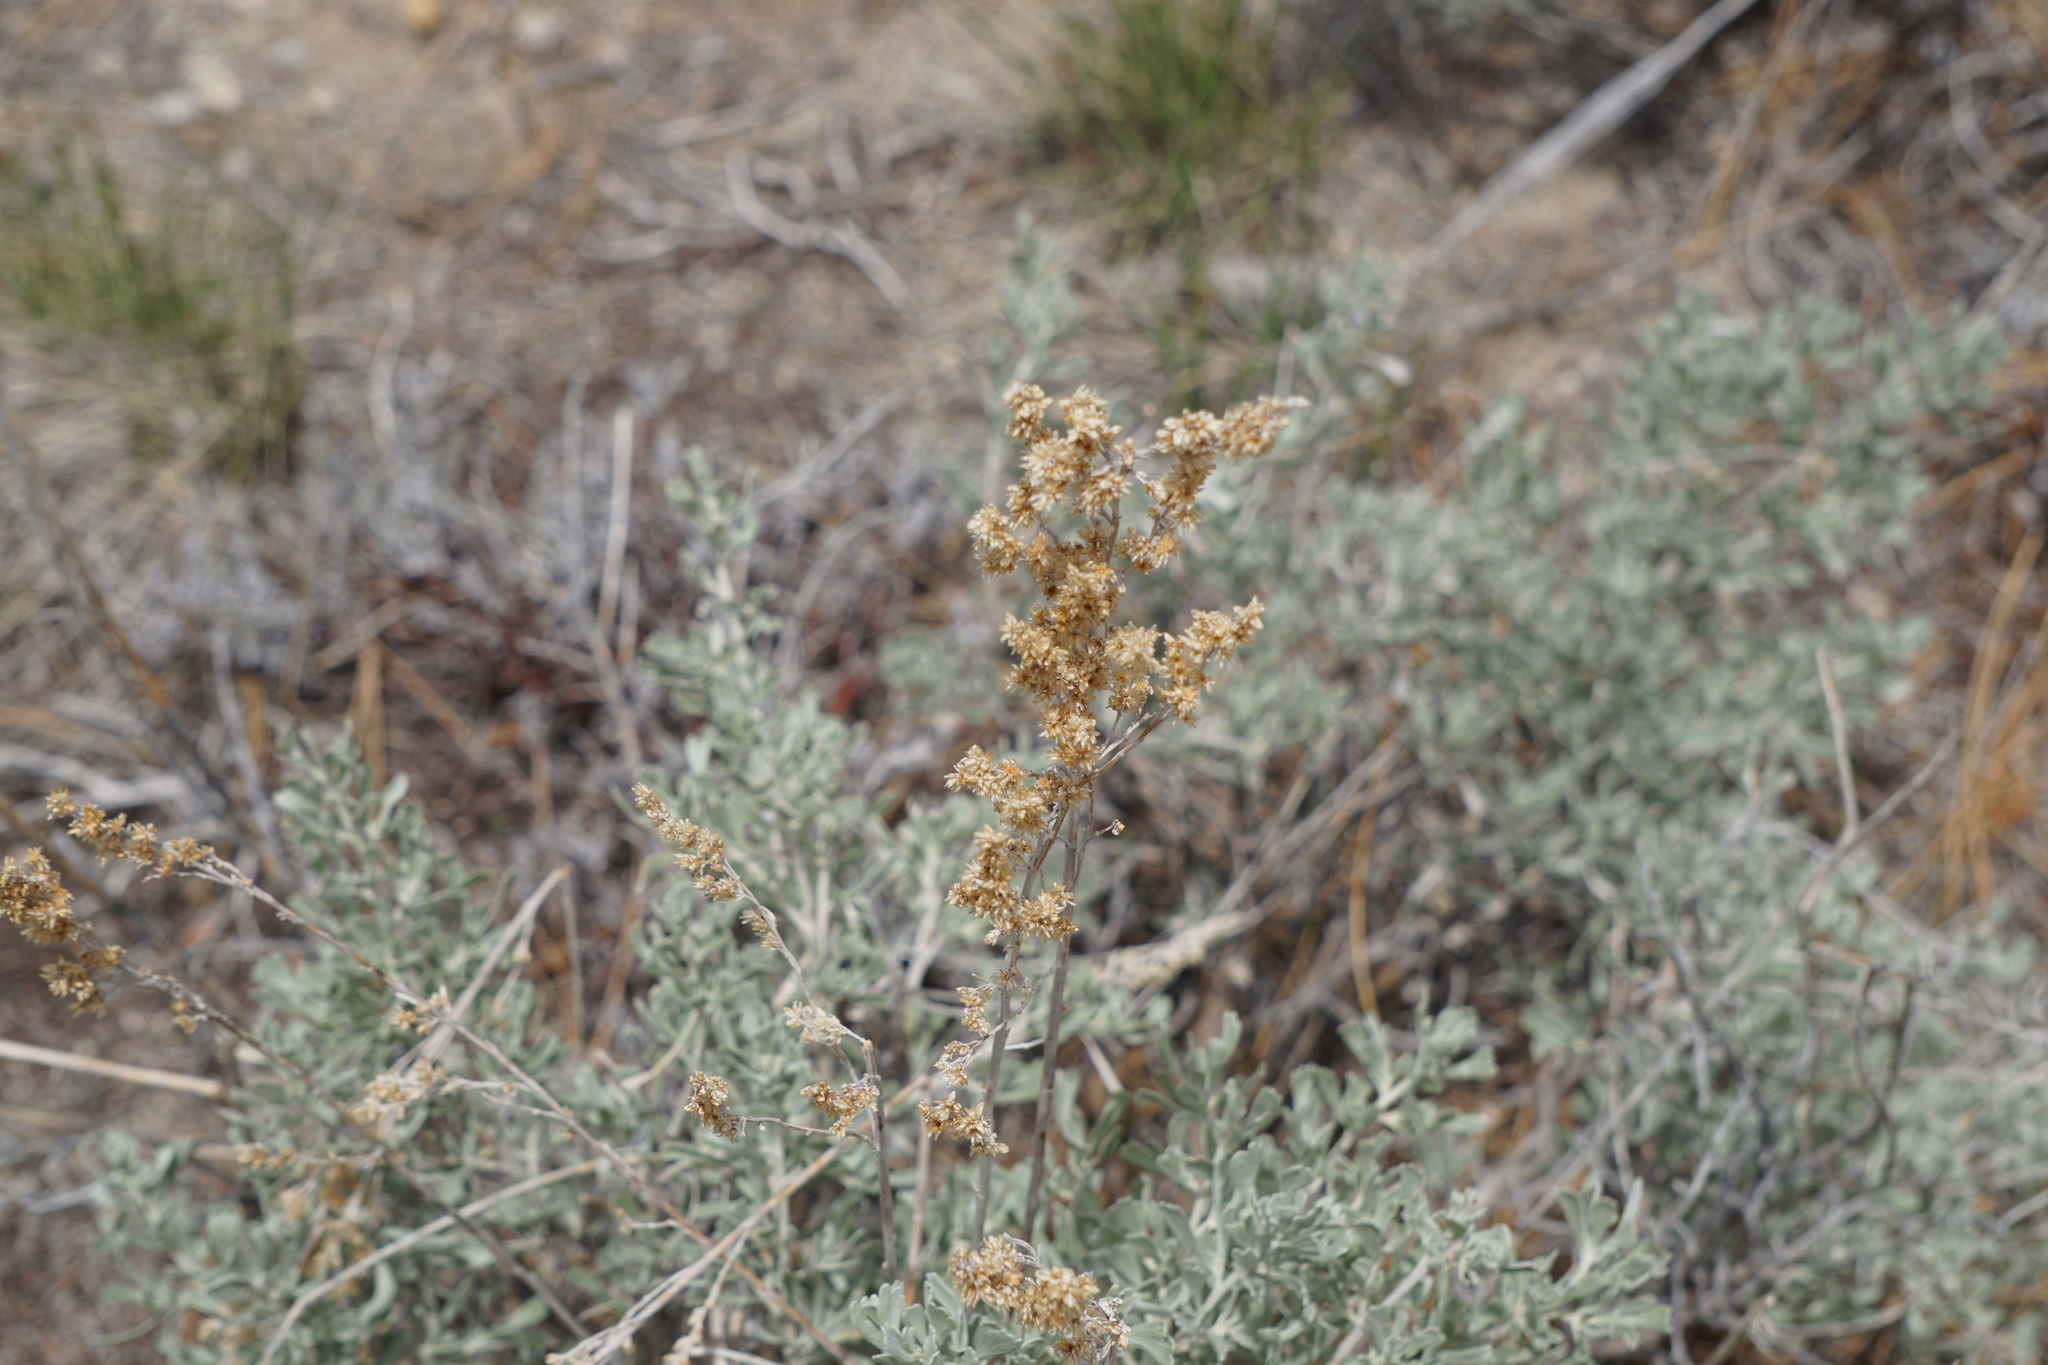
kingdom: Plantae
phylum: Tracheophyta
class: Magnoliopsida
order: Asterales
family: Asteraceae
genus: Artemisia
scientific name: Artemisia tridentata
